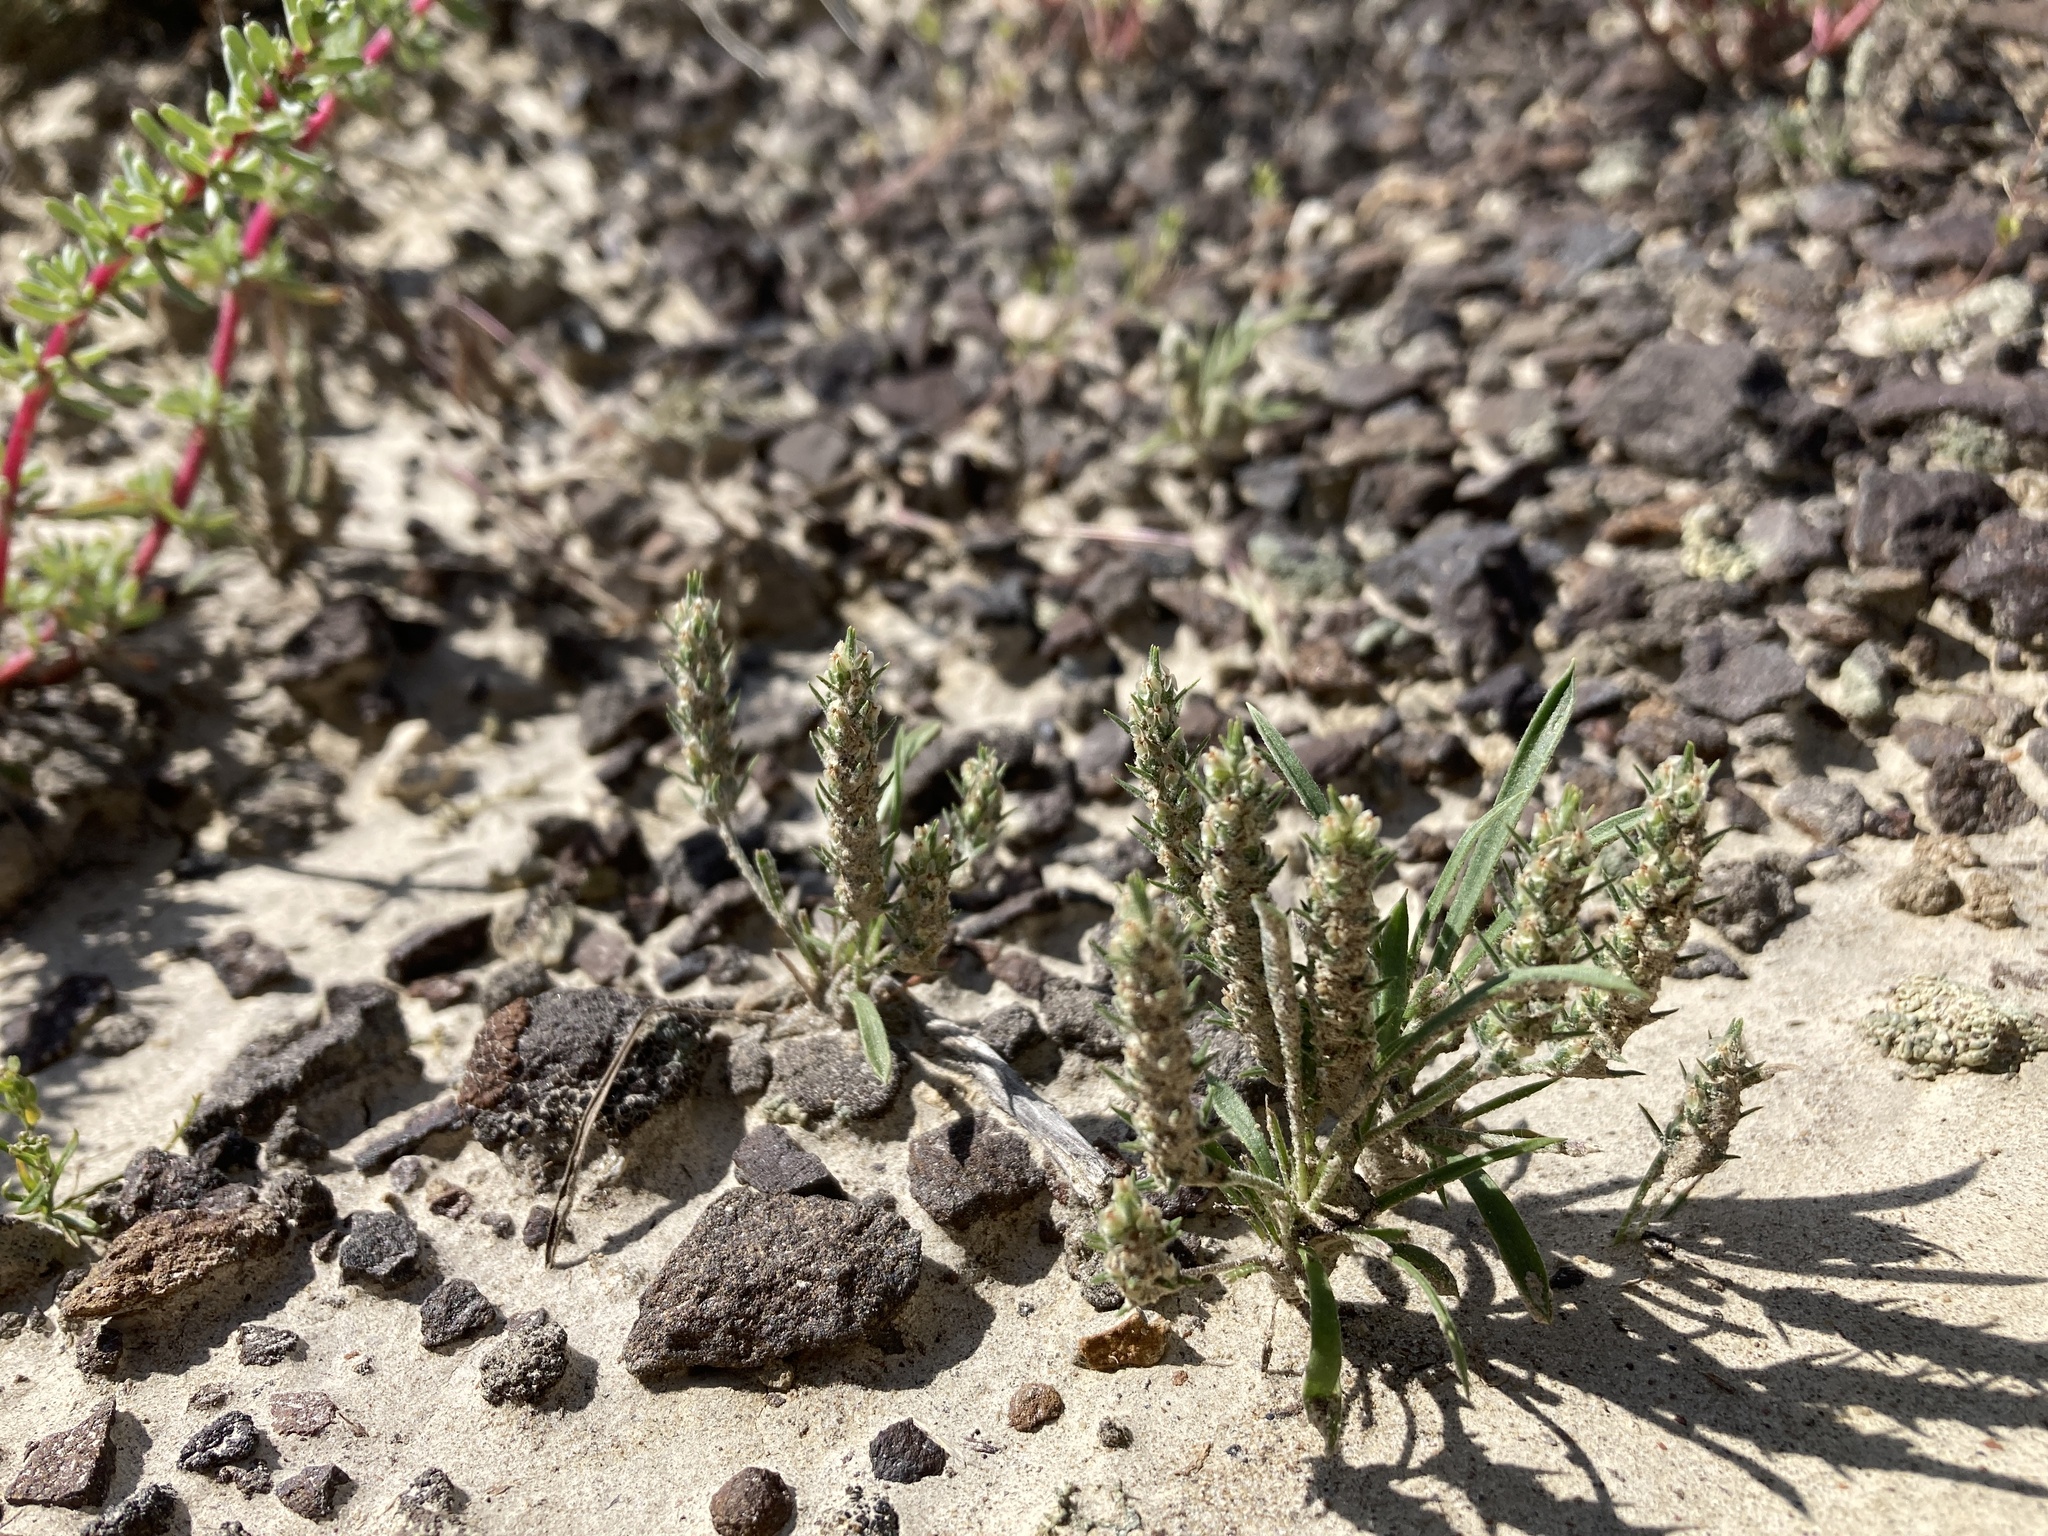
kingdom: Plantae
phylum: Tracheophyta
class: Magnoliopsida
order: Lamiales
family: Plantaginaceae
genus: Plantago
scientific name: Plantago patagonica
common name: Patagonia indian-wheat
